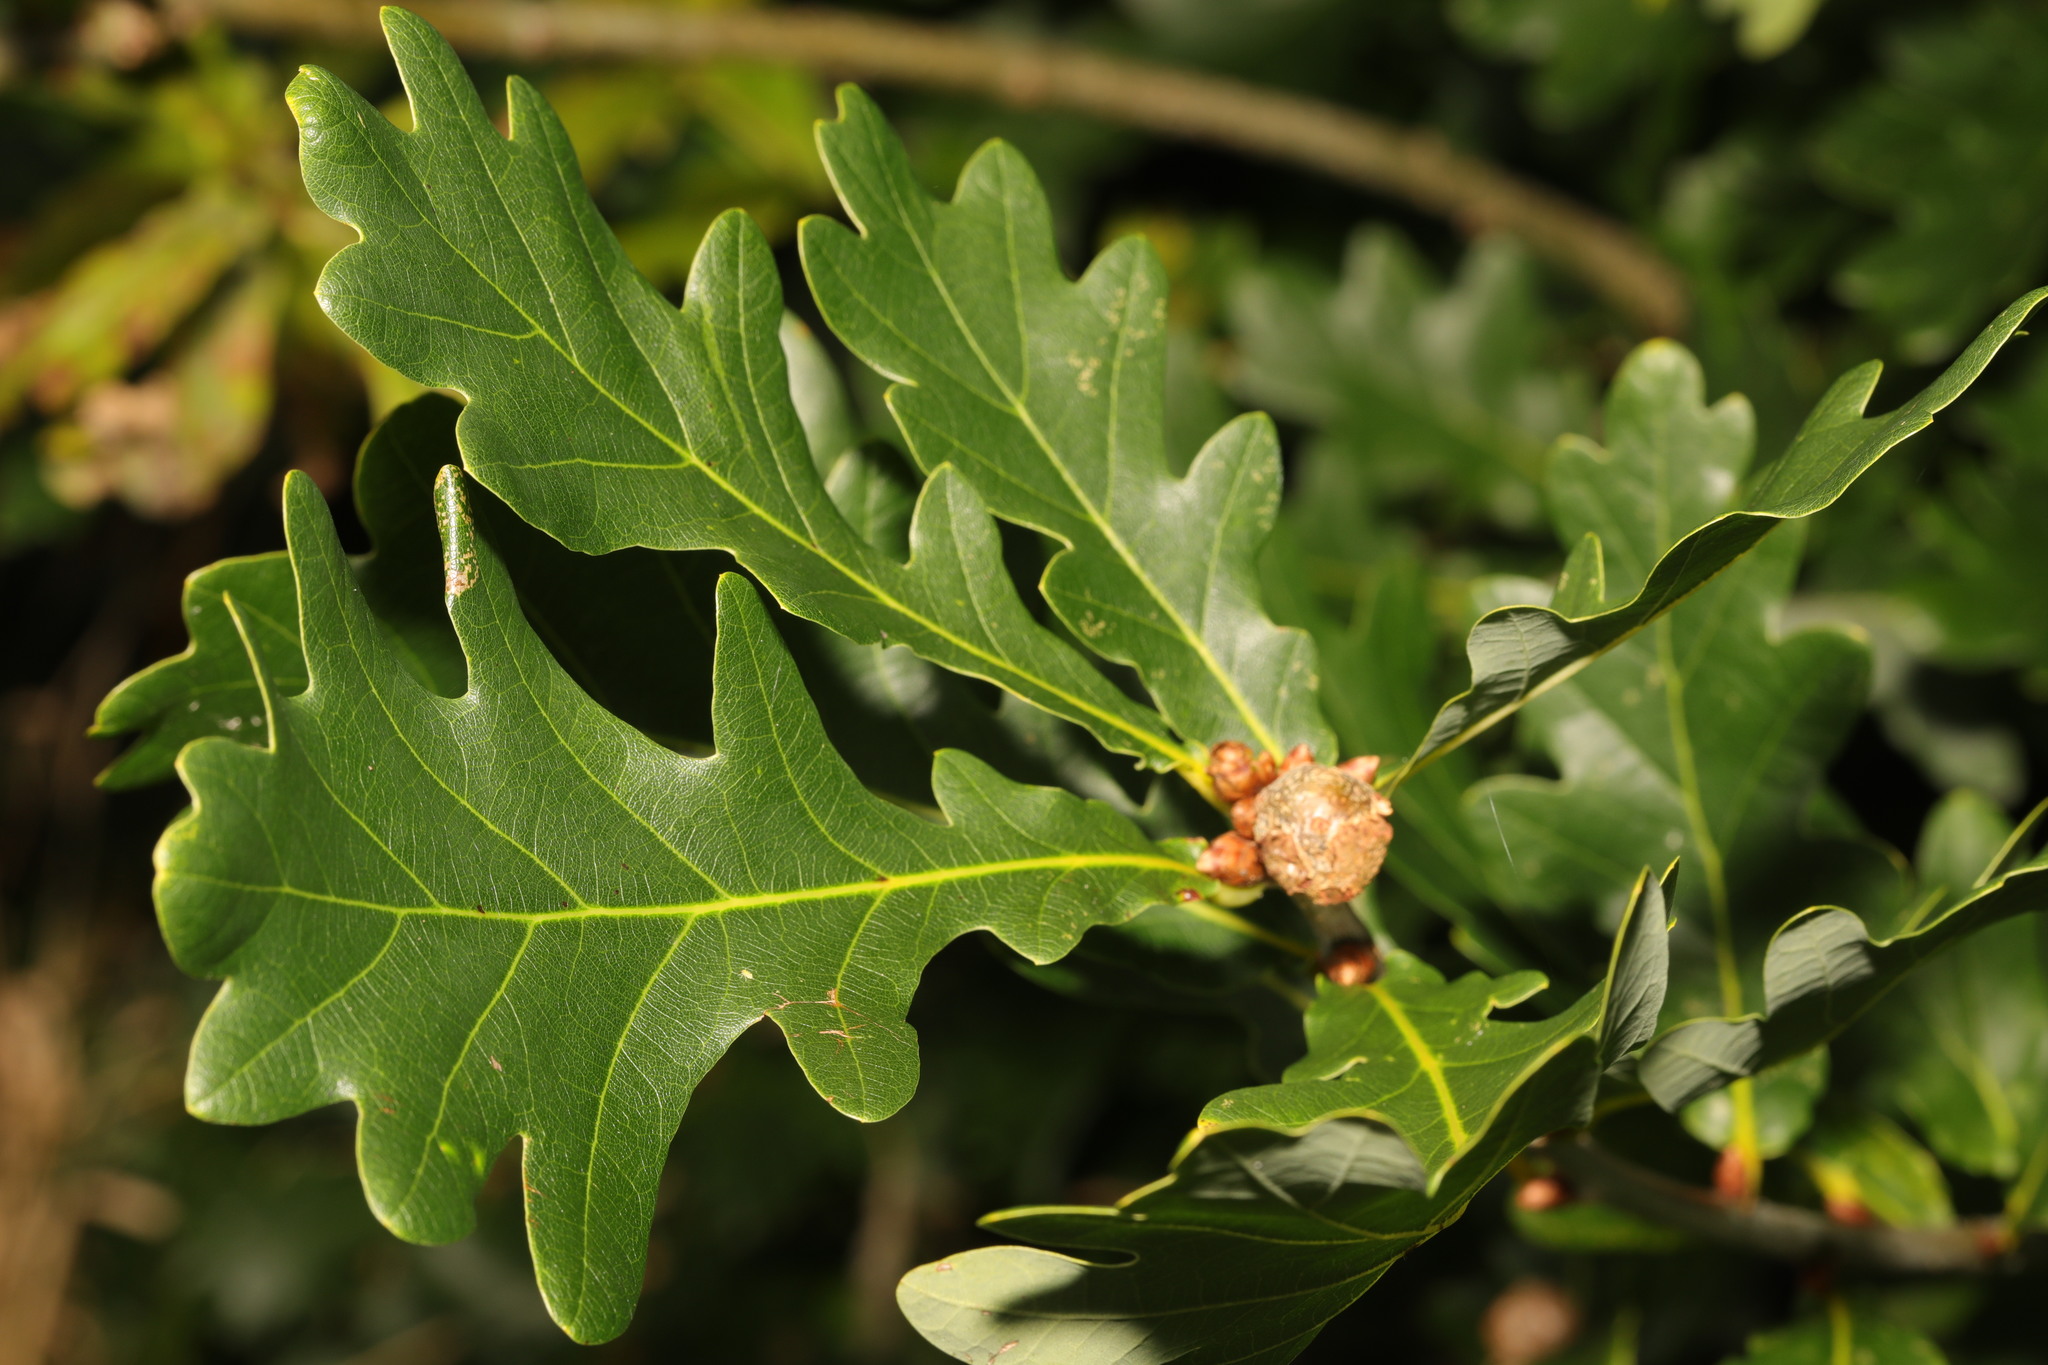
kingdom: Plantae
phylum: Tracheophyta
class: Magnoliopsida
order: Fagales
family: Fagaceae
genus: Quercus
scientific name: Quercus robur
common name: Pedunculate oak
